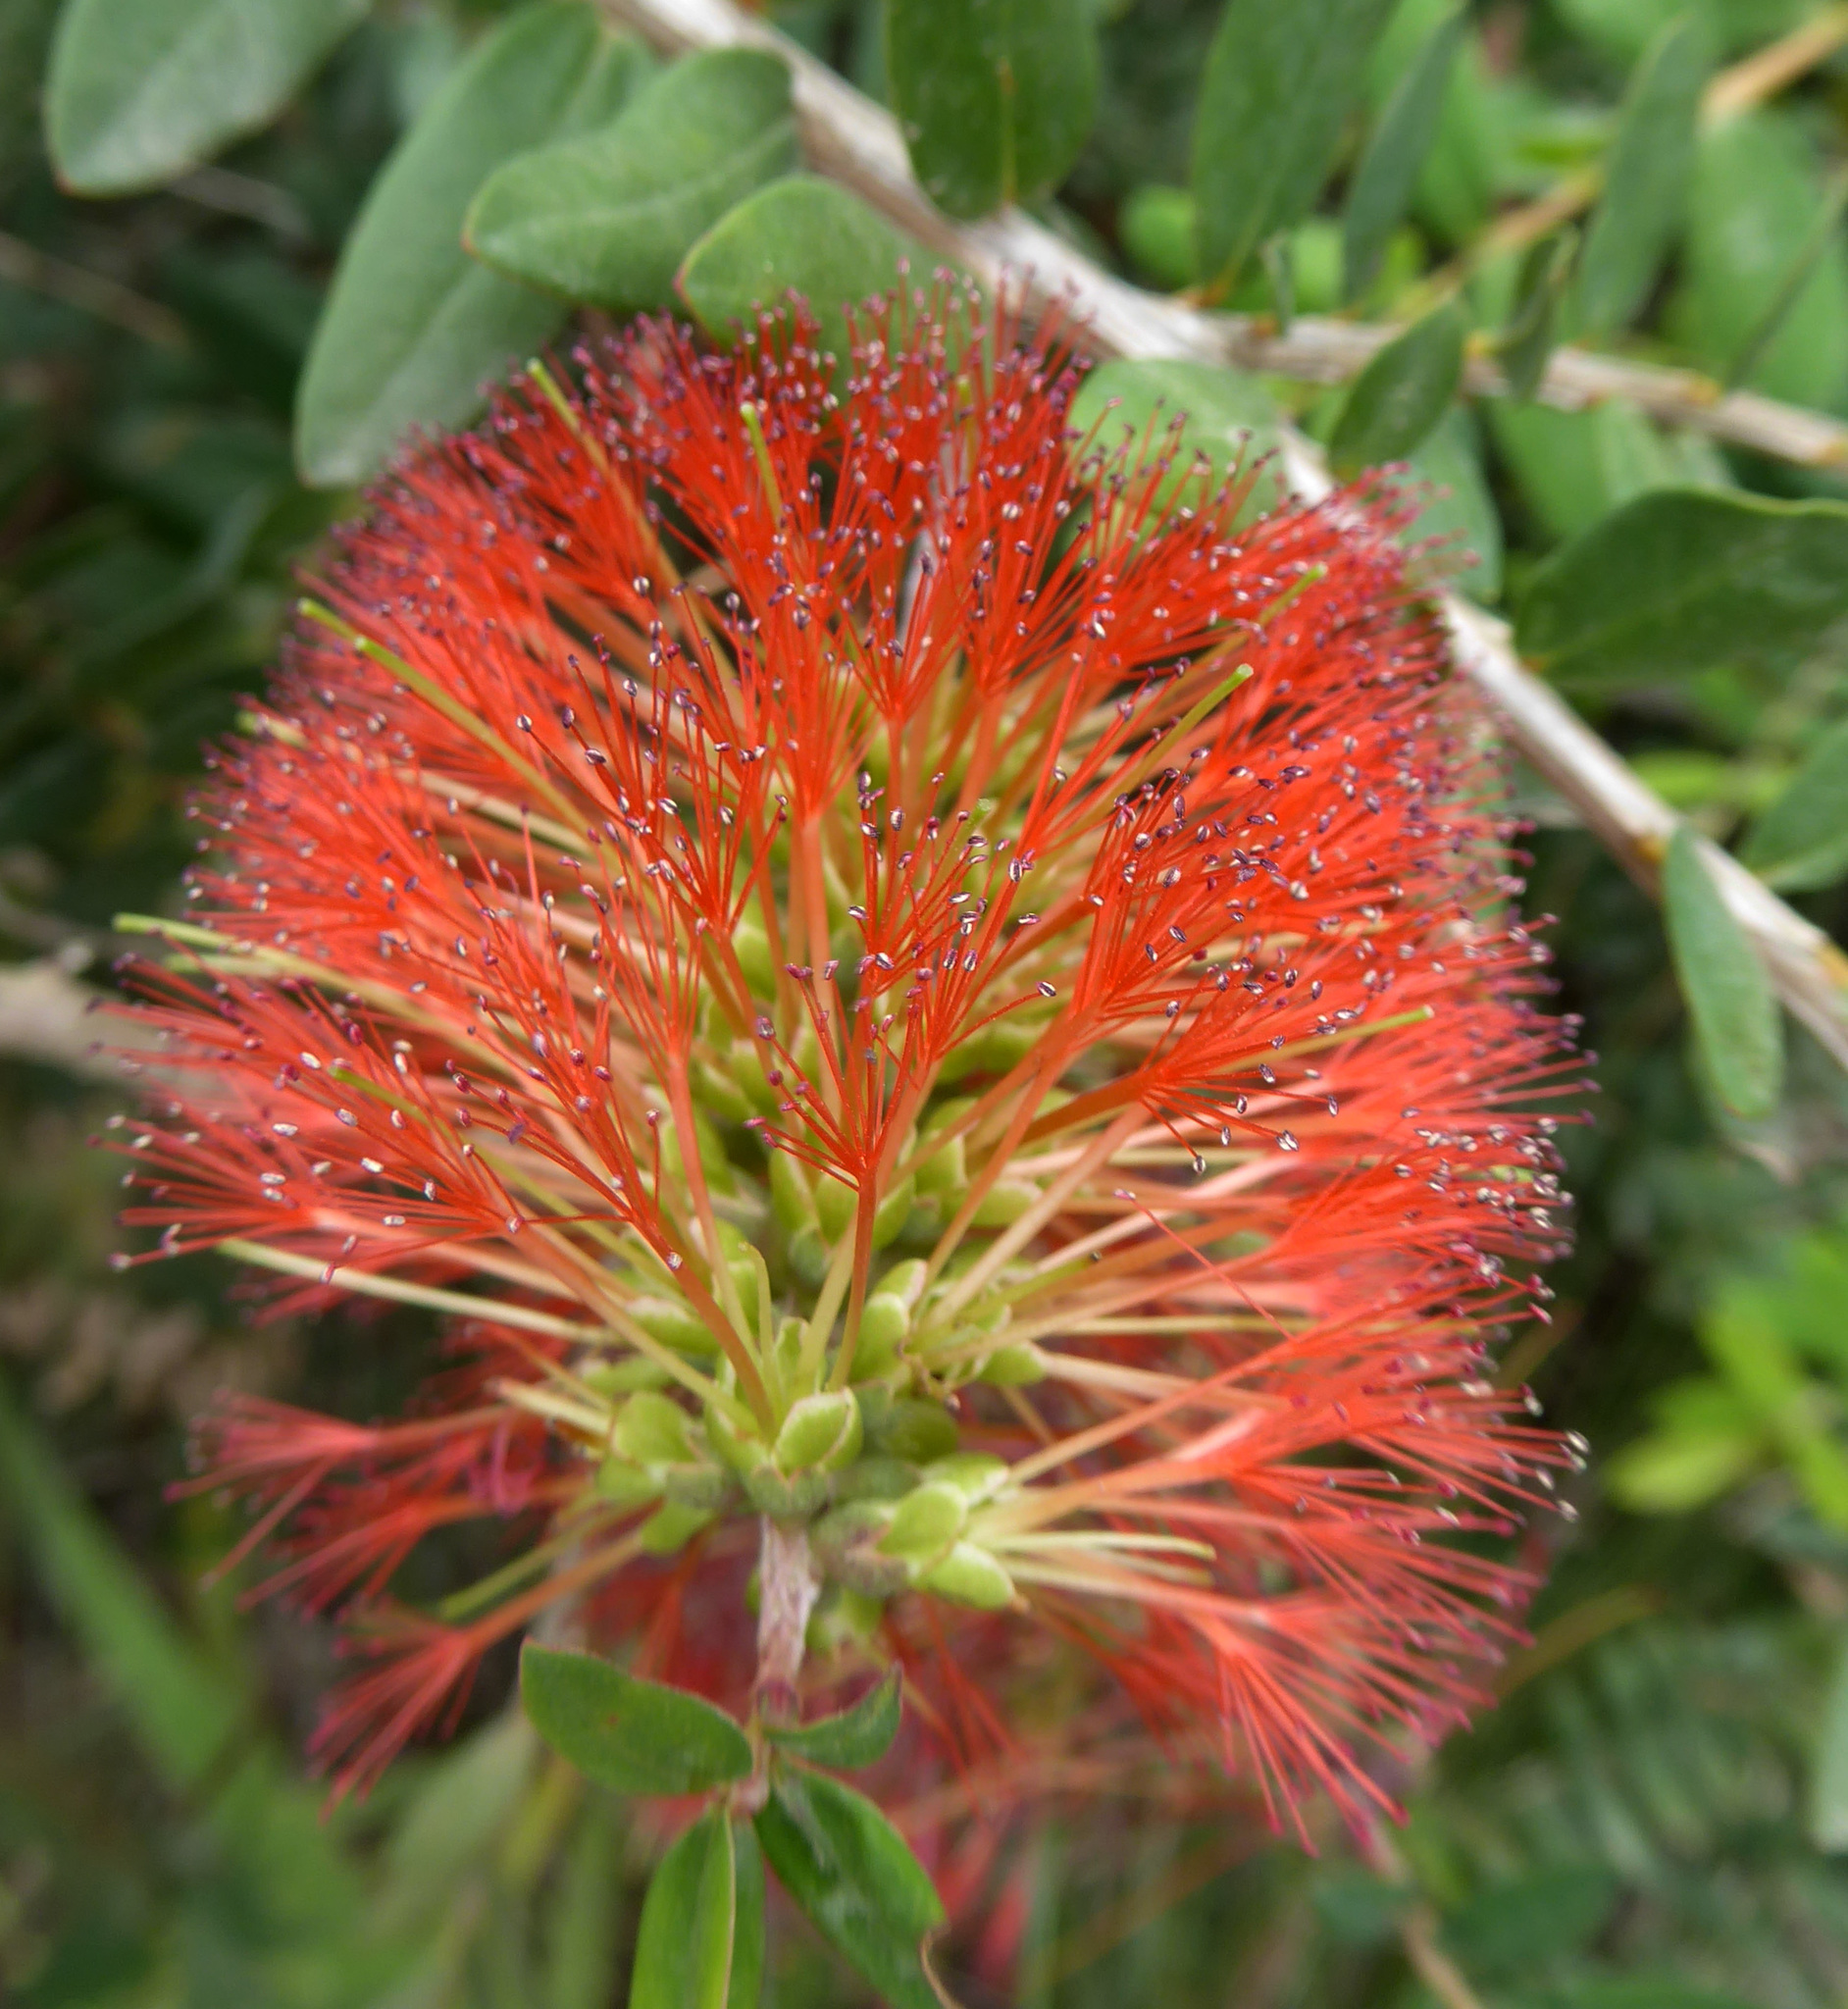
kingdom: Plantae
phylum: Tracheophyta
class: Magnoliopsida
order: Myrtales
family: Myrtaceae
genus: Melaleuca
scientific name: Melaleuca hypericifolia
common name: Red honey myrtle
